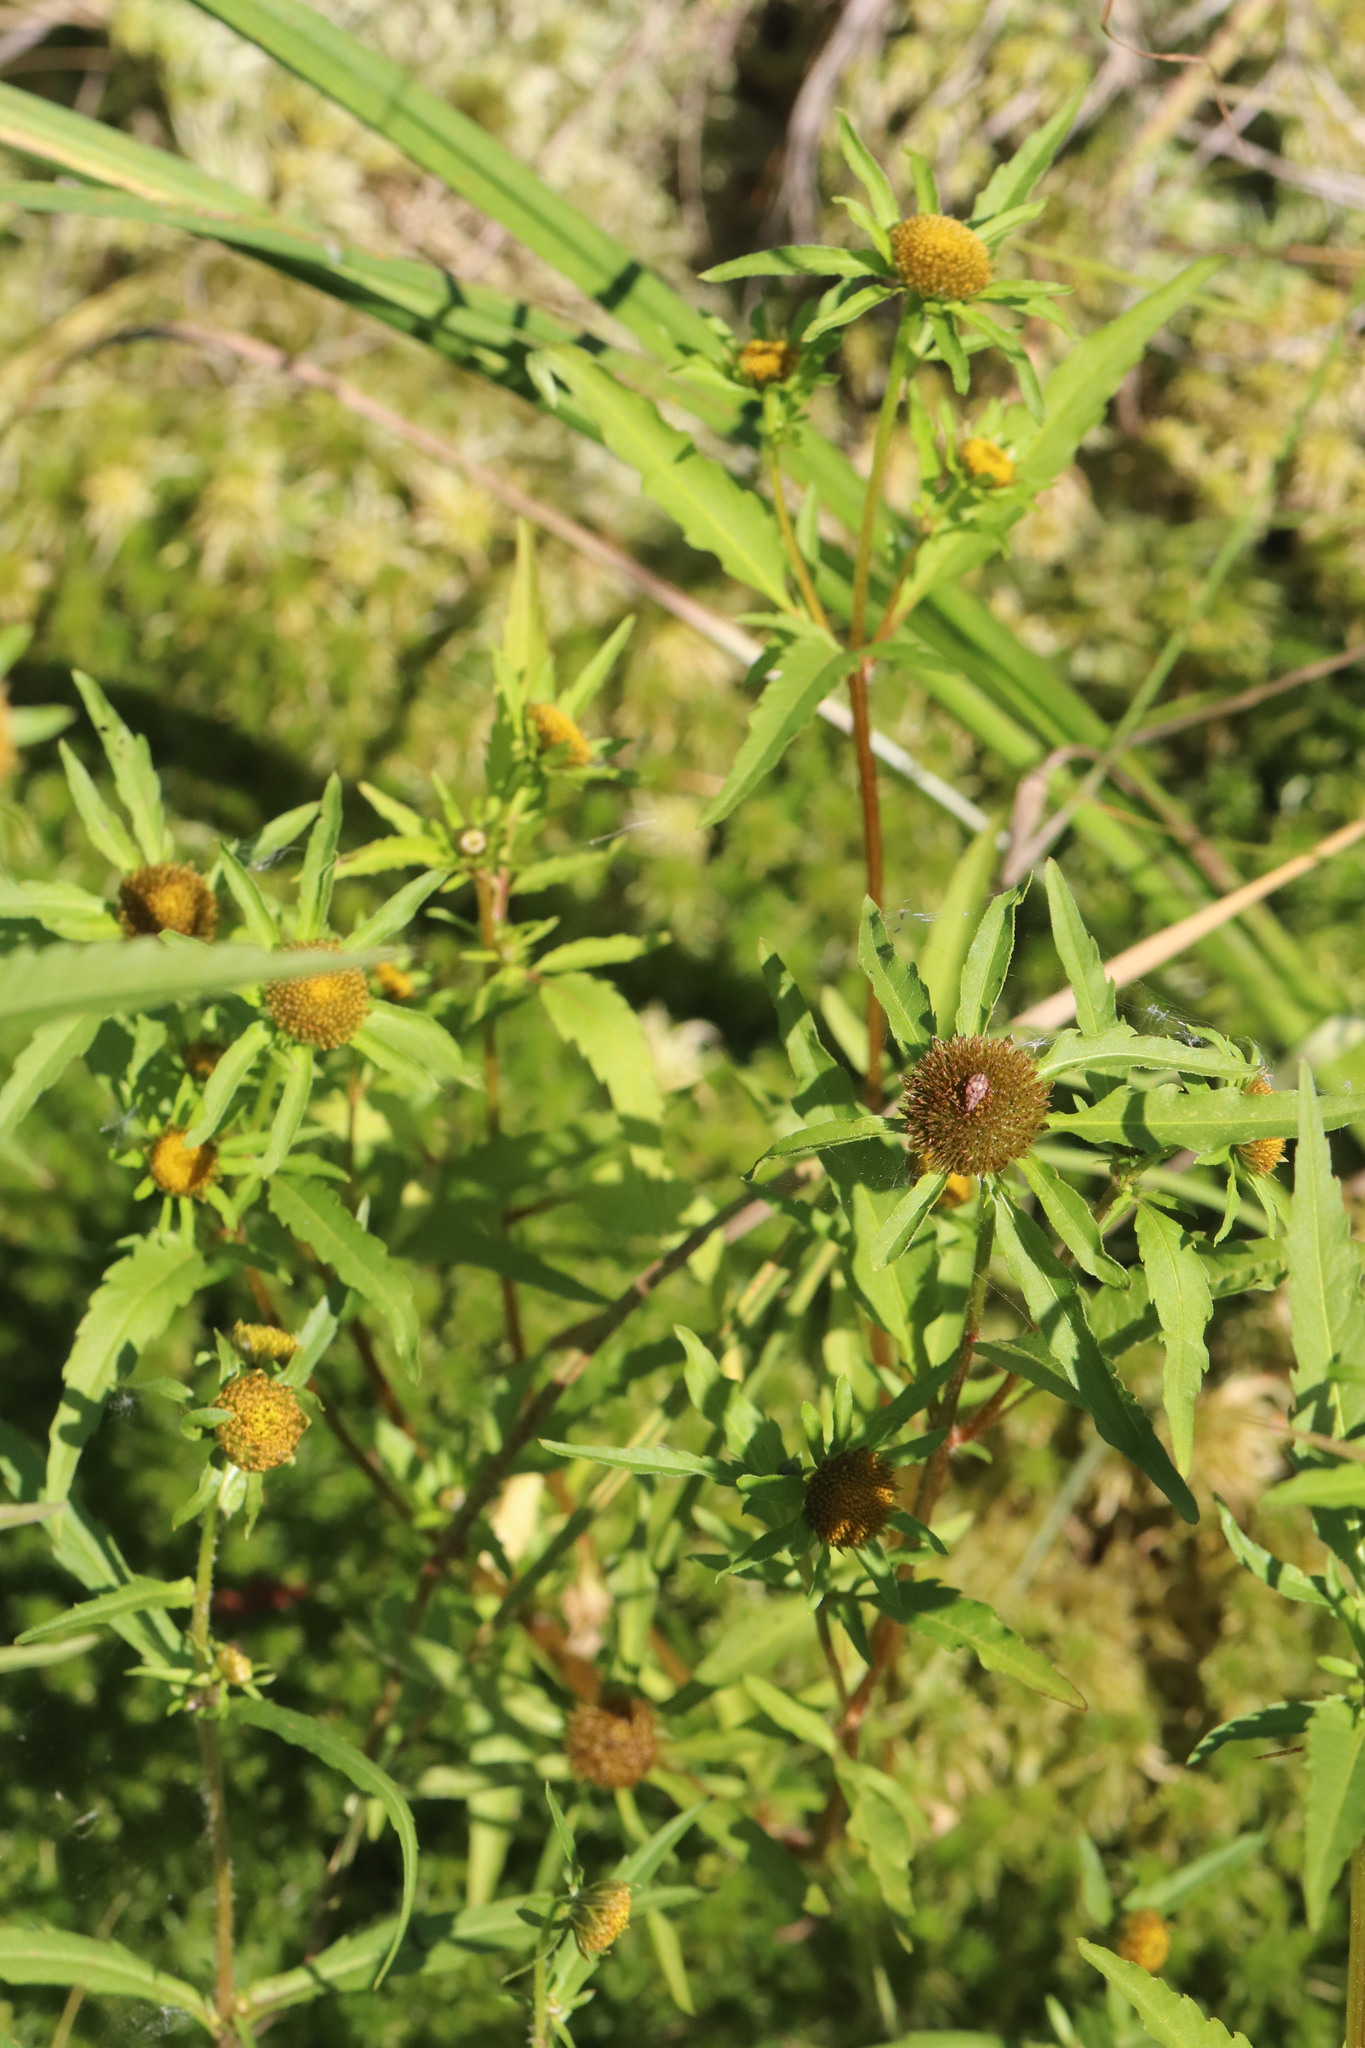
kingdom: Plantae
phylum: Tracheophyta
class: Magnoliopsida
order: Asterales
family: Asteraceae
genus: Bidens
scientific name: Bidens radiata
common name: Radiating bur-marigold
